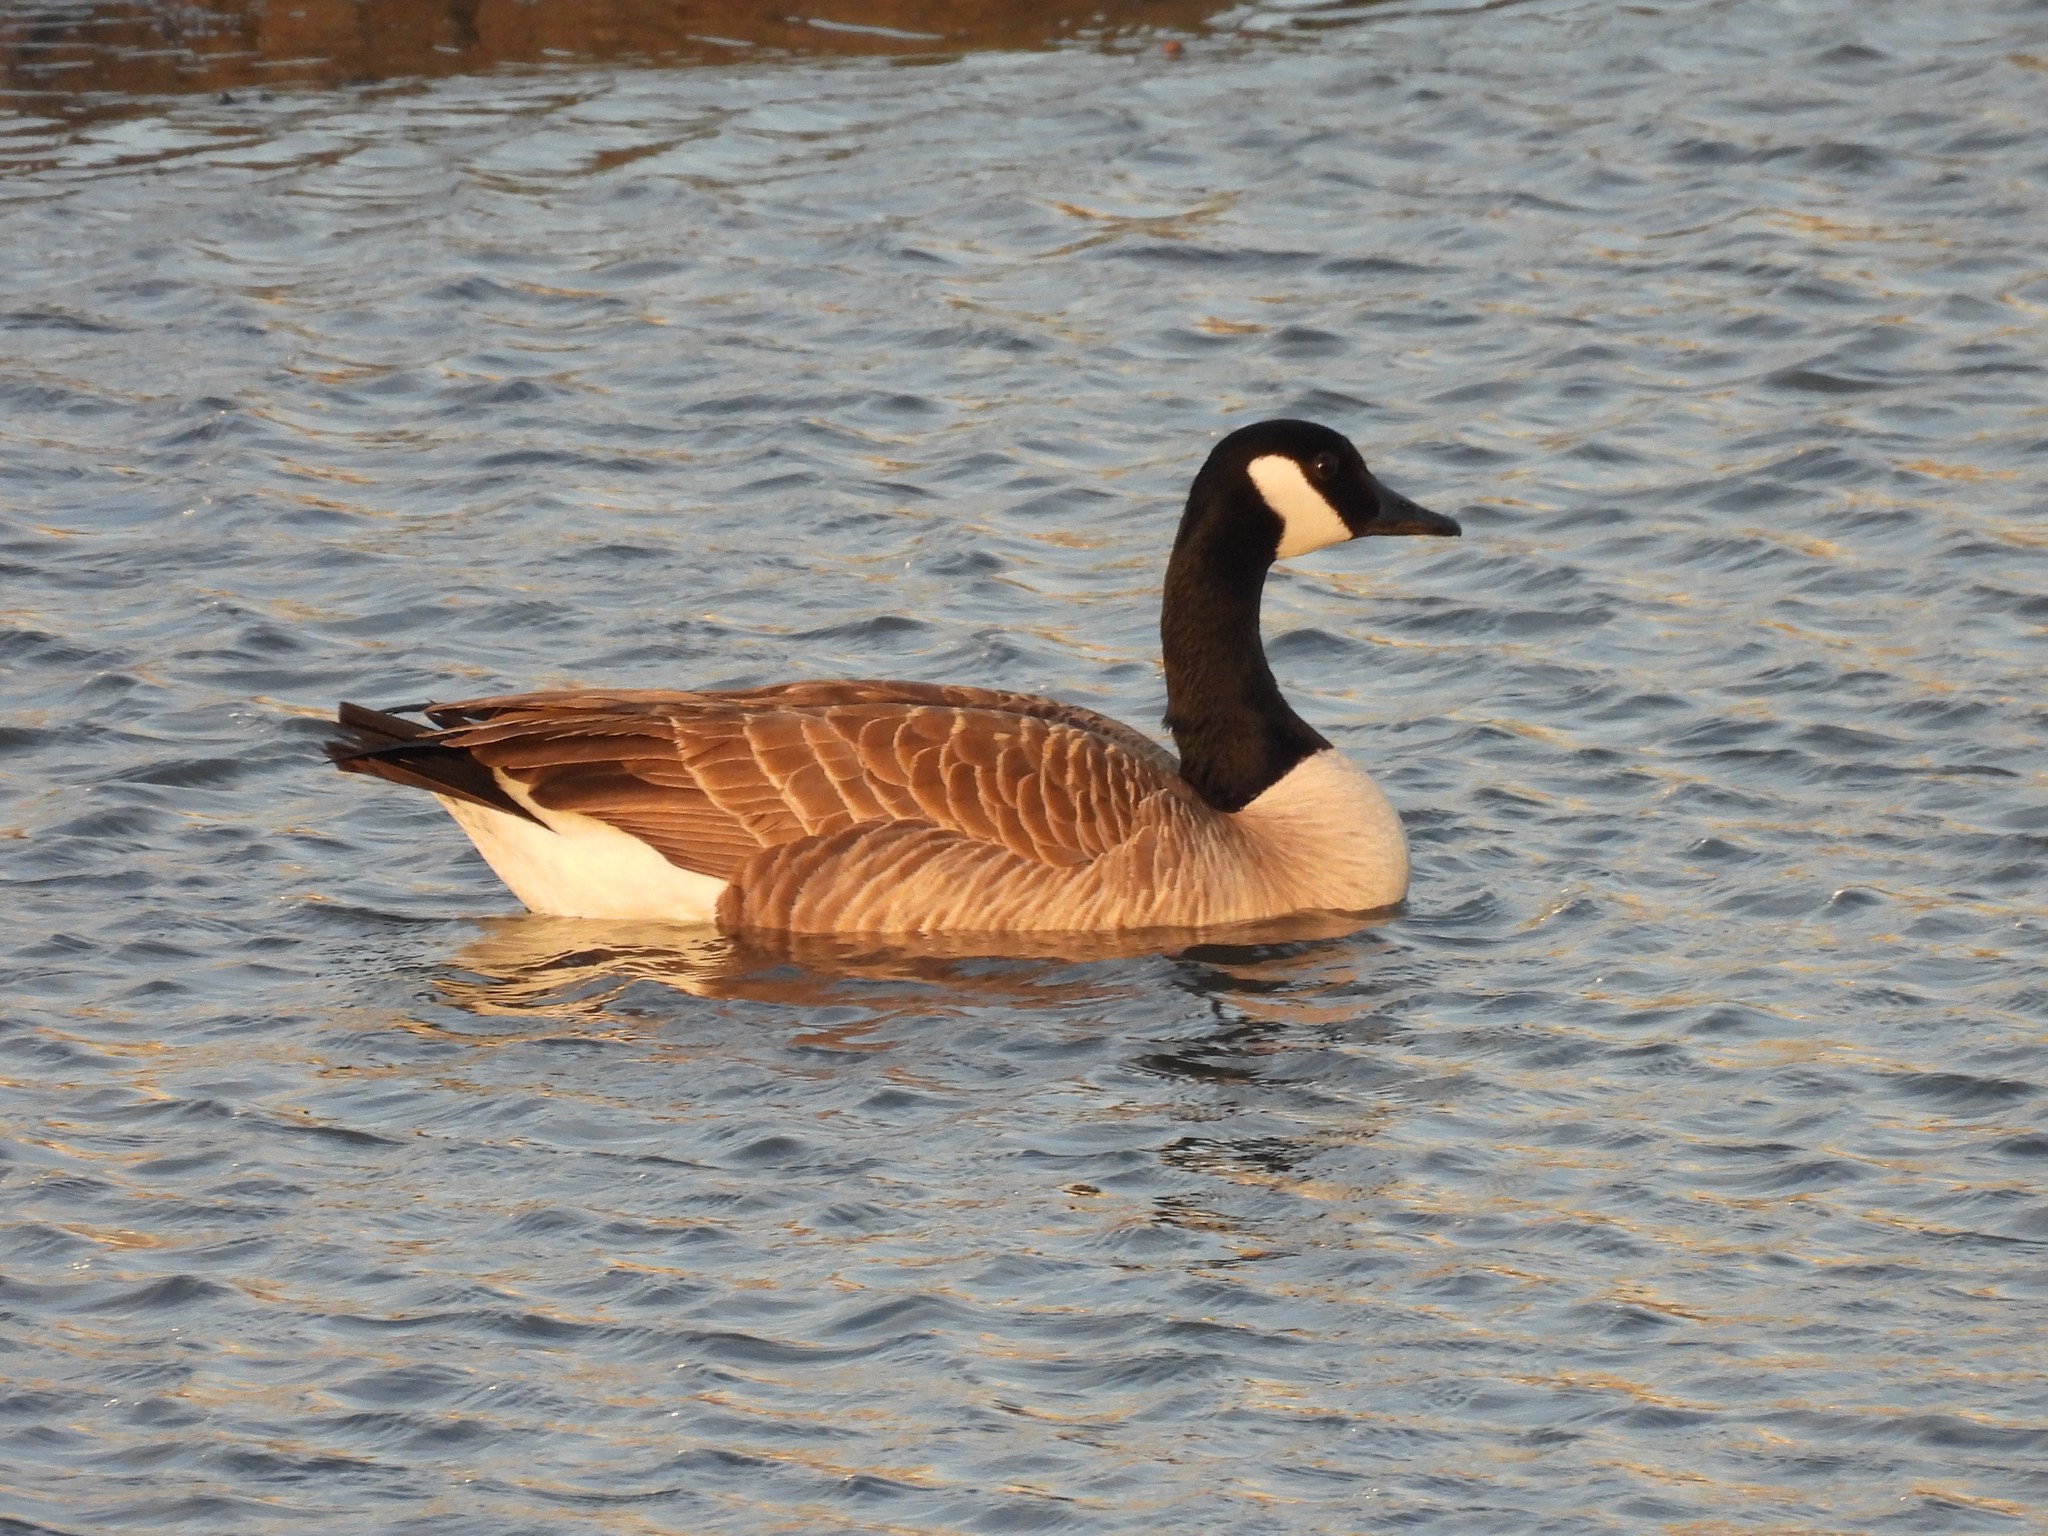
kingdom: Animalia
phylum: Chordata
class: Aves
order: Anseriformes
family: Anatidae
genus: Branta
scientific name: Branta canadensis
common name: Canada goose
